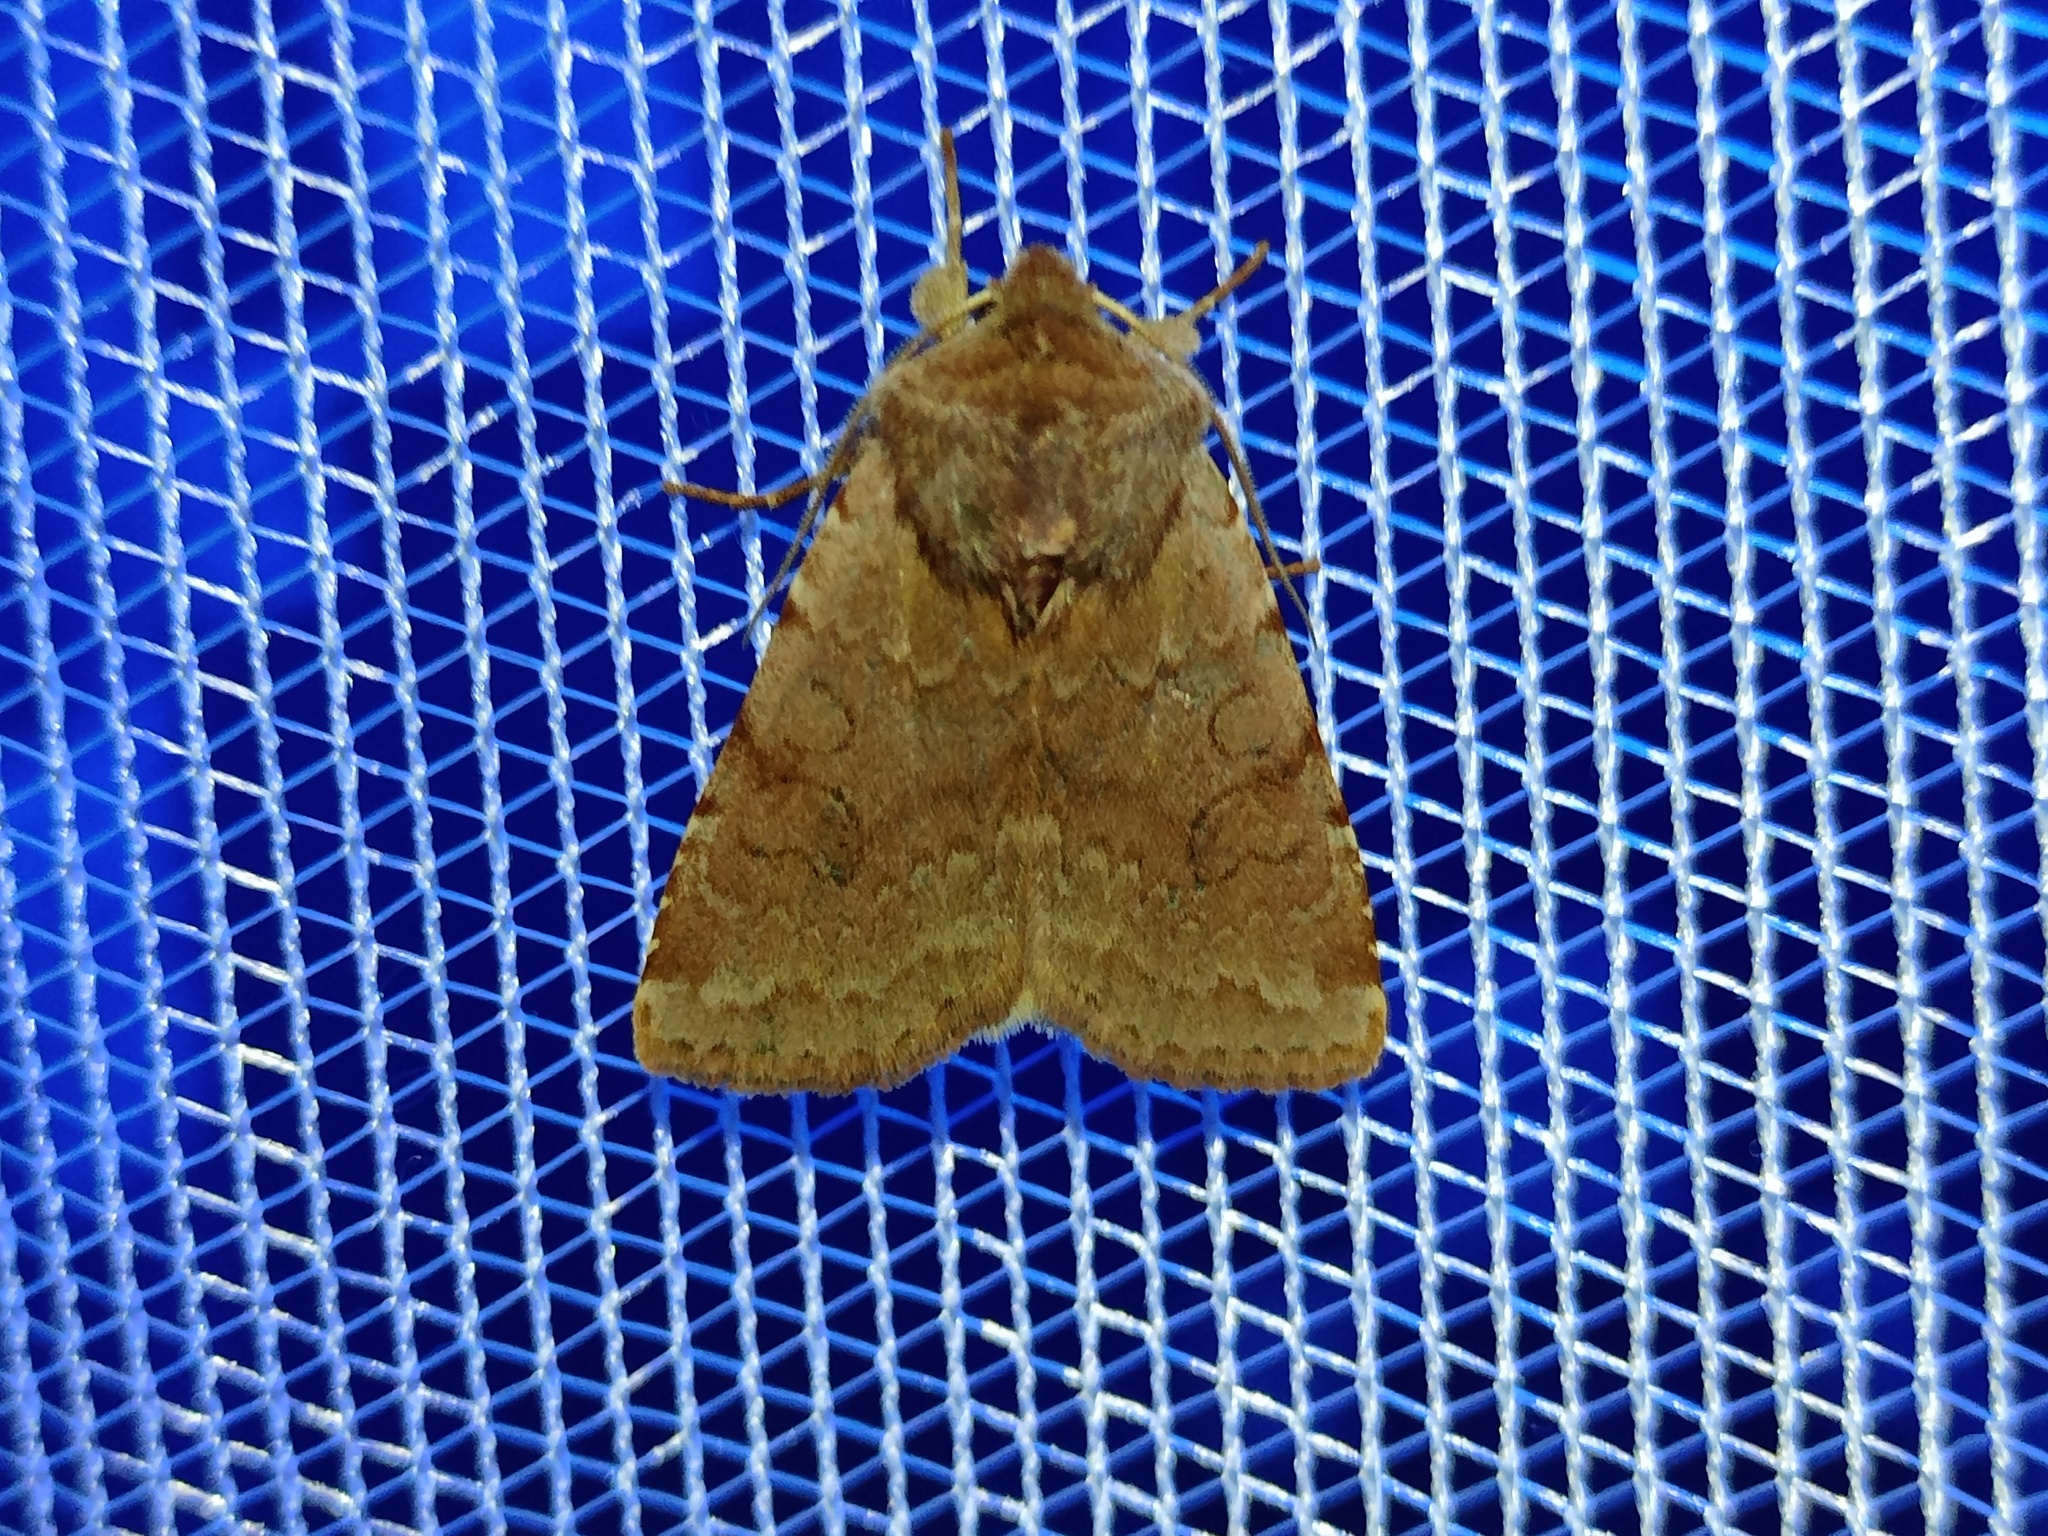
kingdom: Animalia
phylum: Arthropoda
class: Insecta
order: Lepidoptera
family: Noctuidae
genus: Cerastis
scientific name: Cerastis rubricosa
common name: Red chestnut
